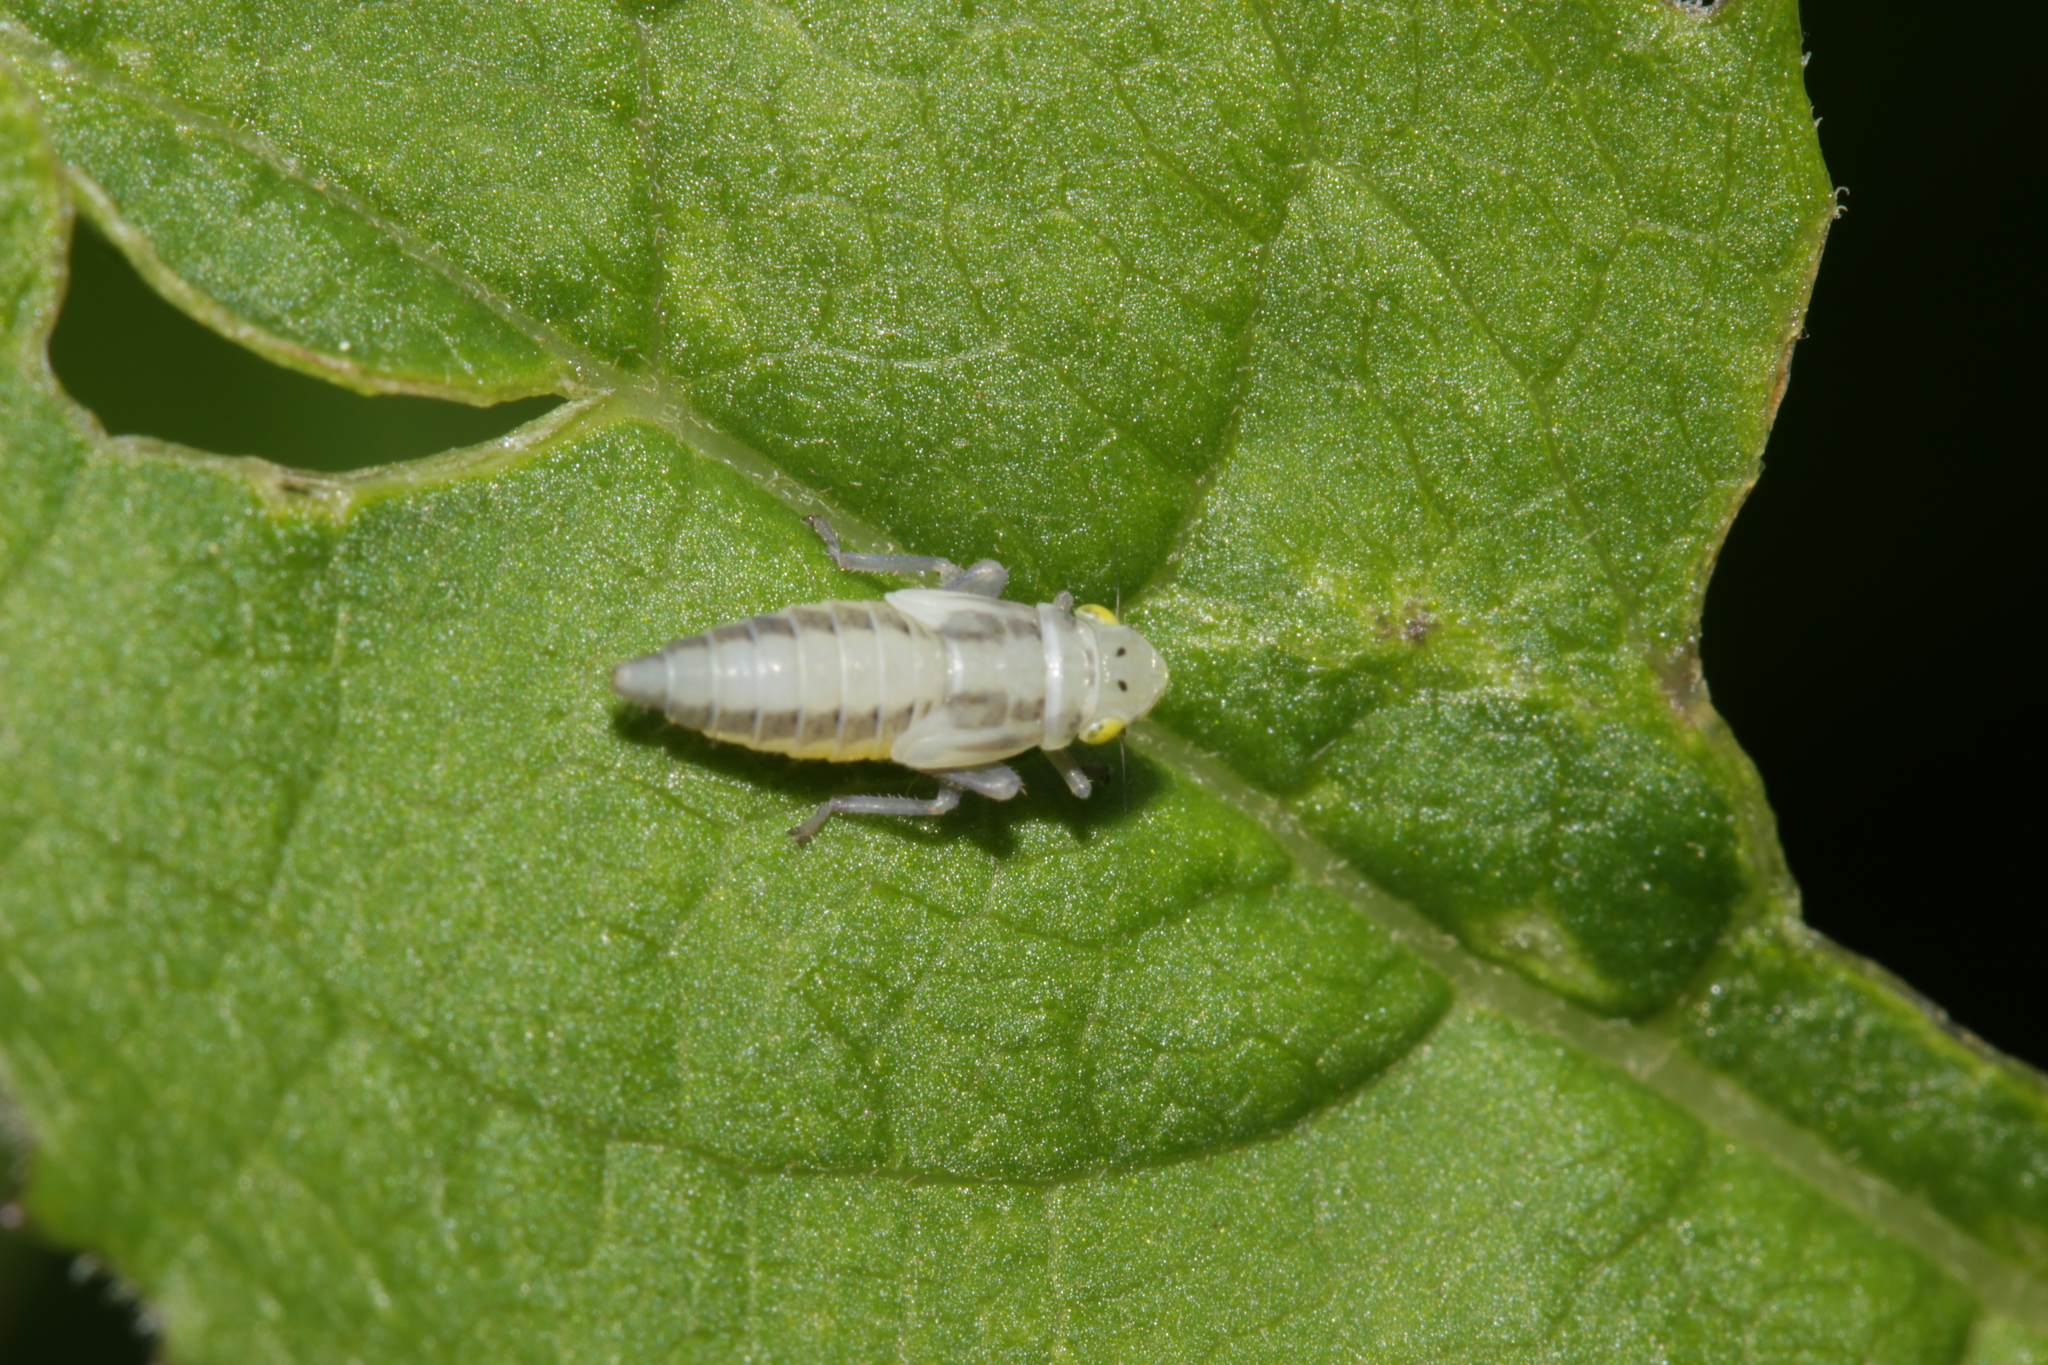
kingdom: Animalia
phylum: Arthropoda
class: Insecta
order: Hemiptera
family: Cicadellidae
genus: Evacanthus
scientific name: Evacanthus interruptus
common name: Leafhopper
